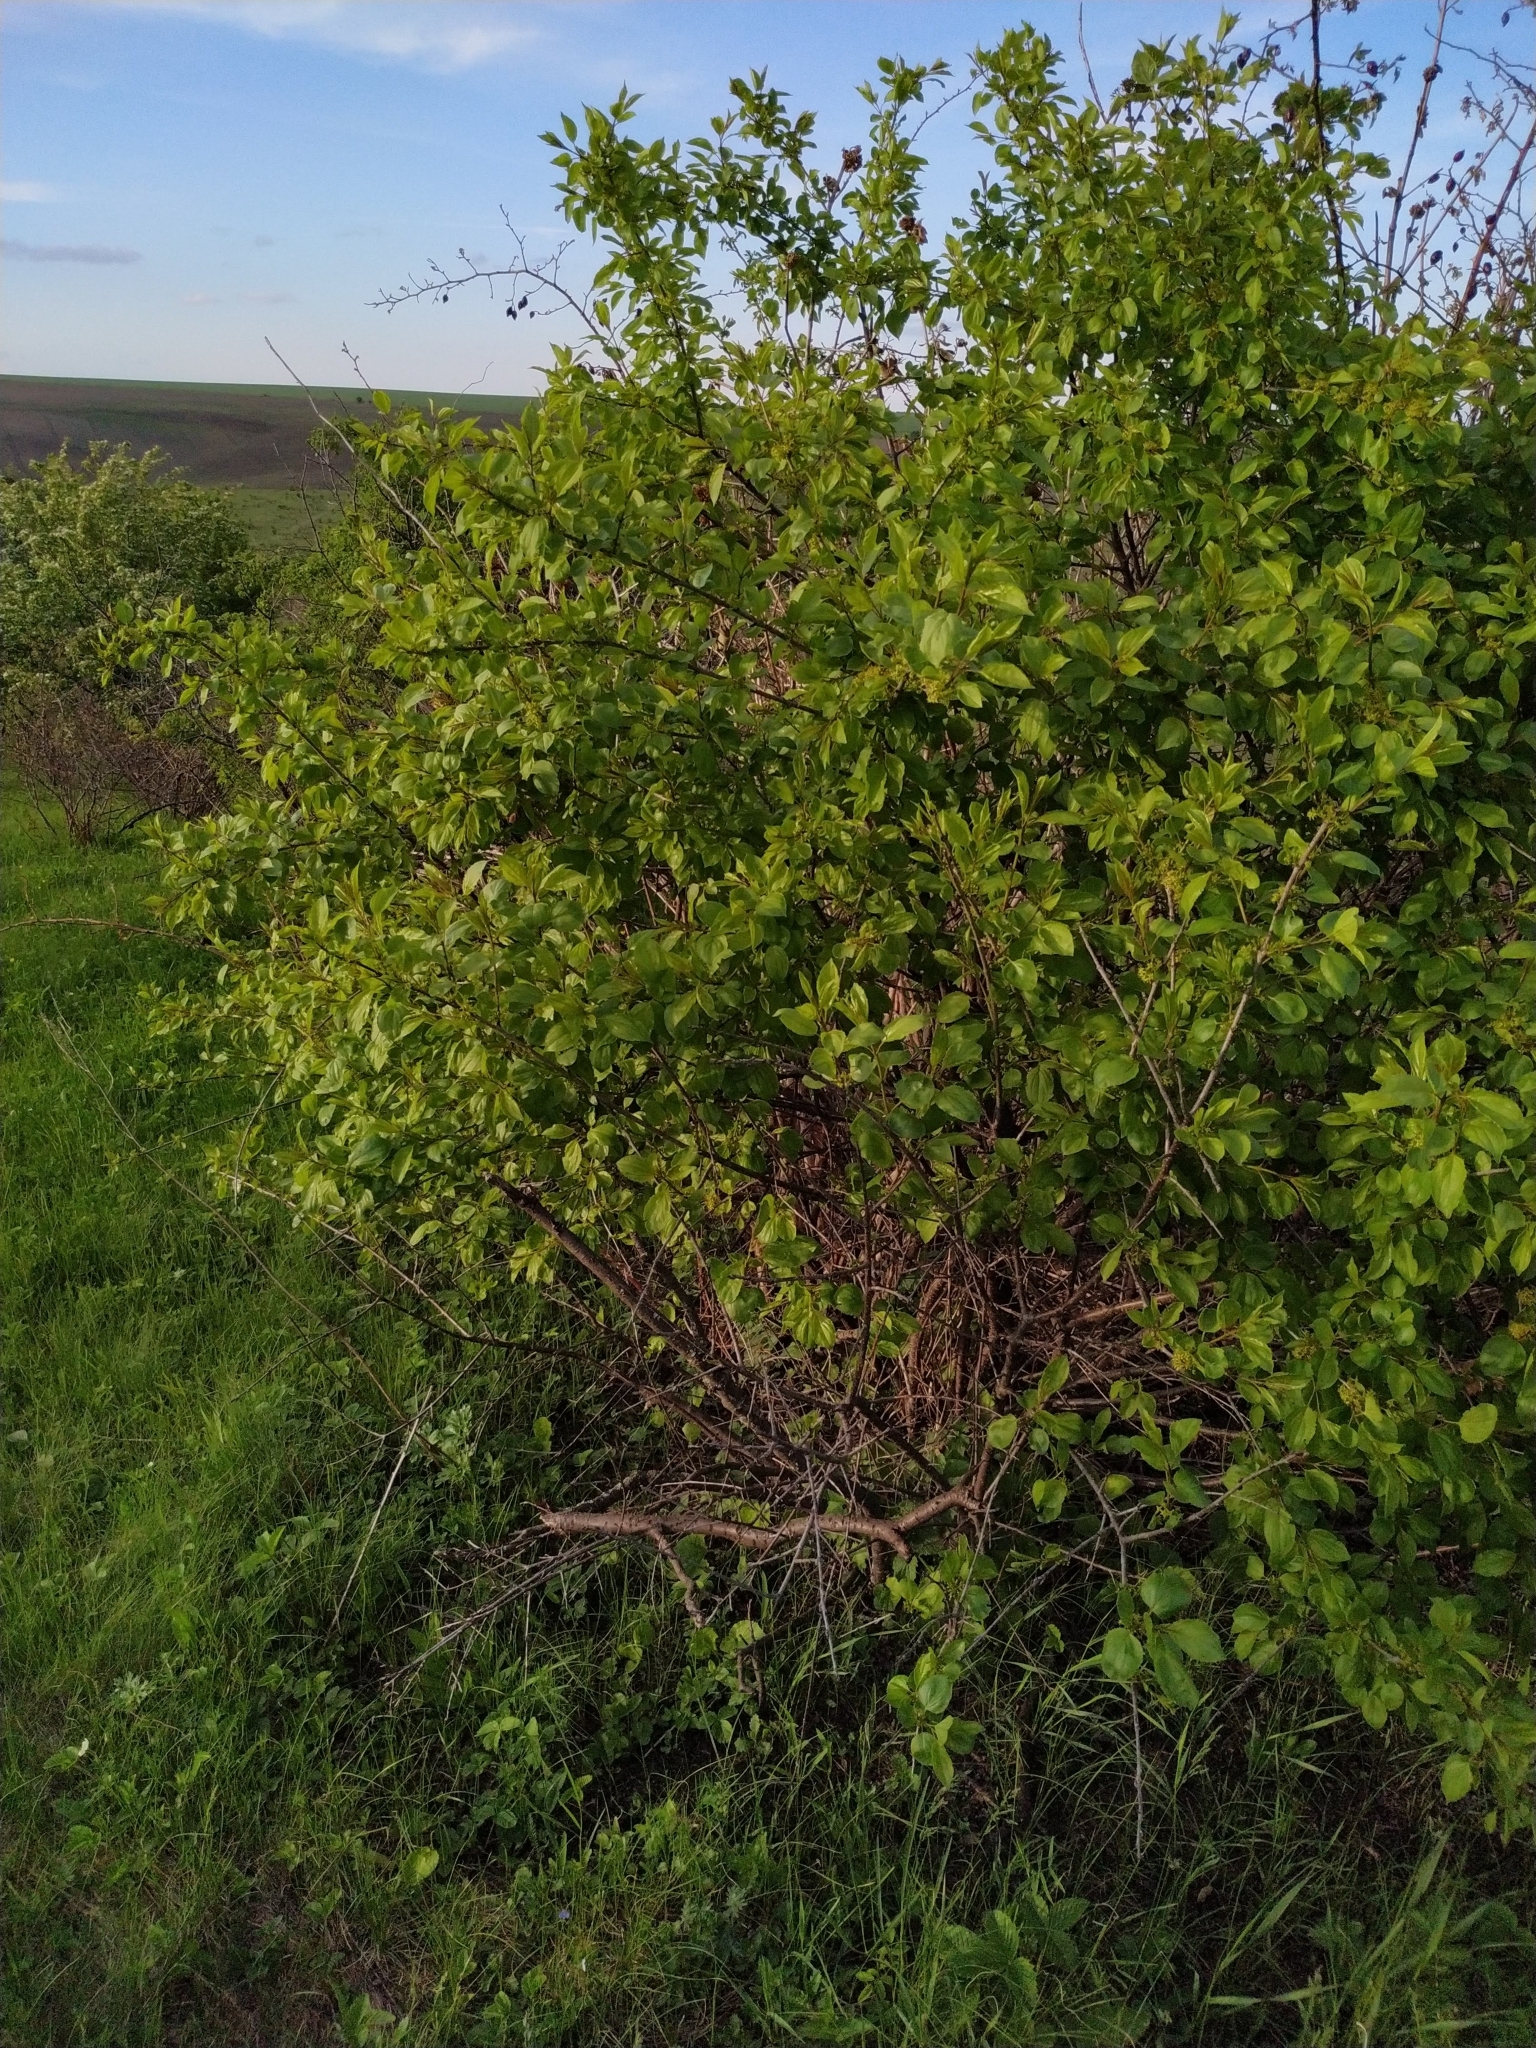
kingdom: Plantae
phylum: Tracheophyta
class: Magnoliopsida
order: Rosales
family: Rhamnaceae
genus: Rhamnus
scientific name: Rhamnus cathartica
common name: Common buckthorn
